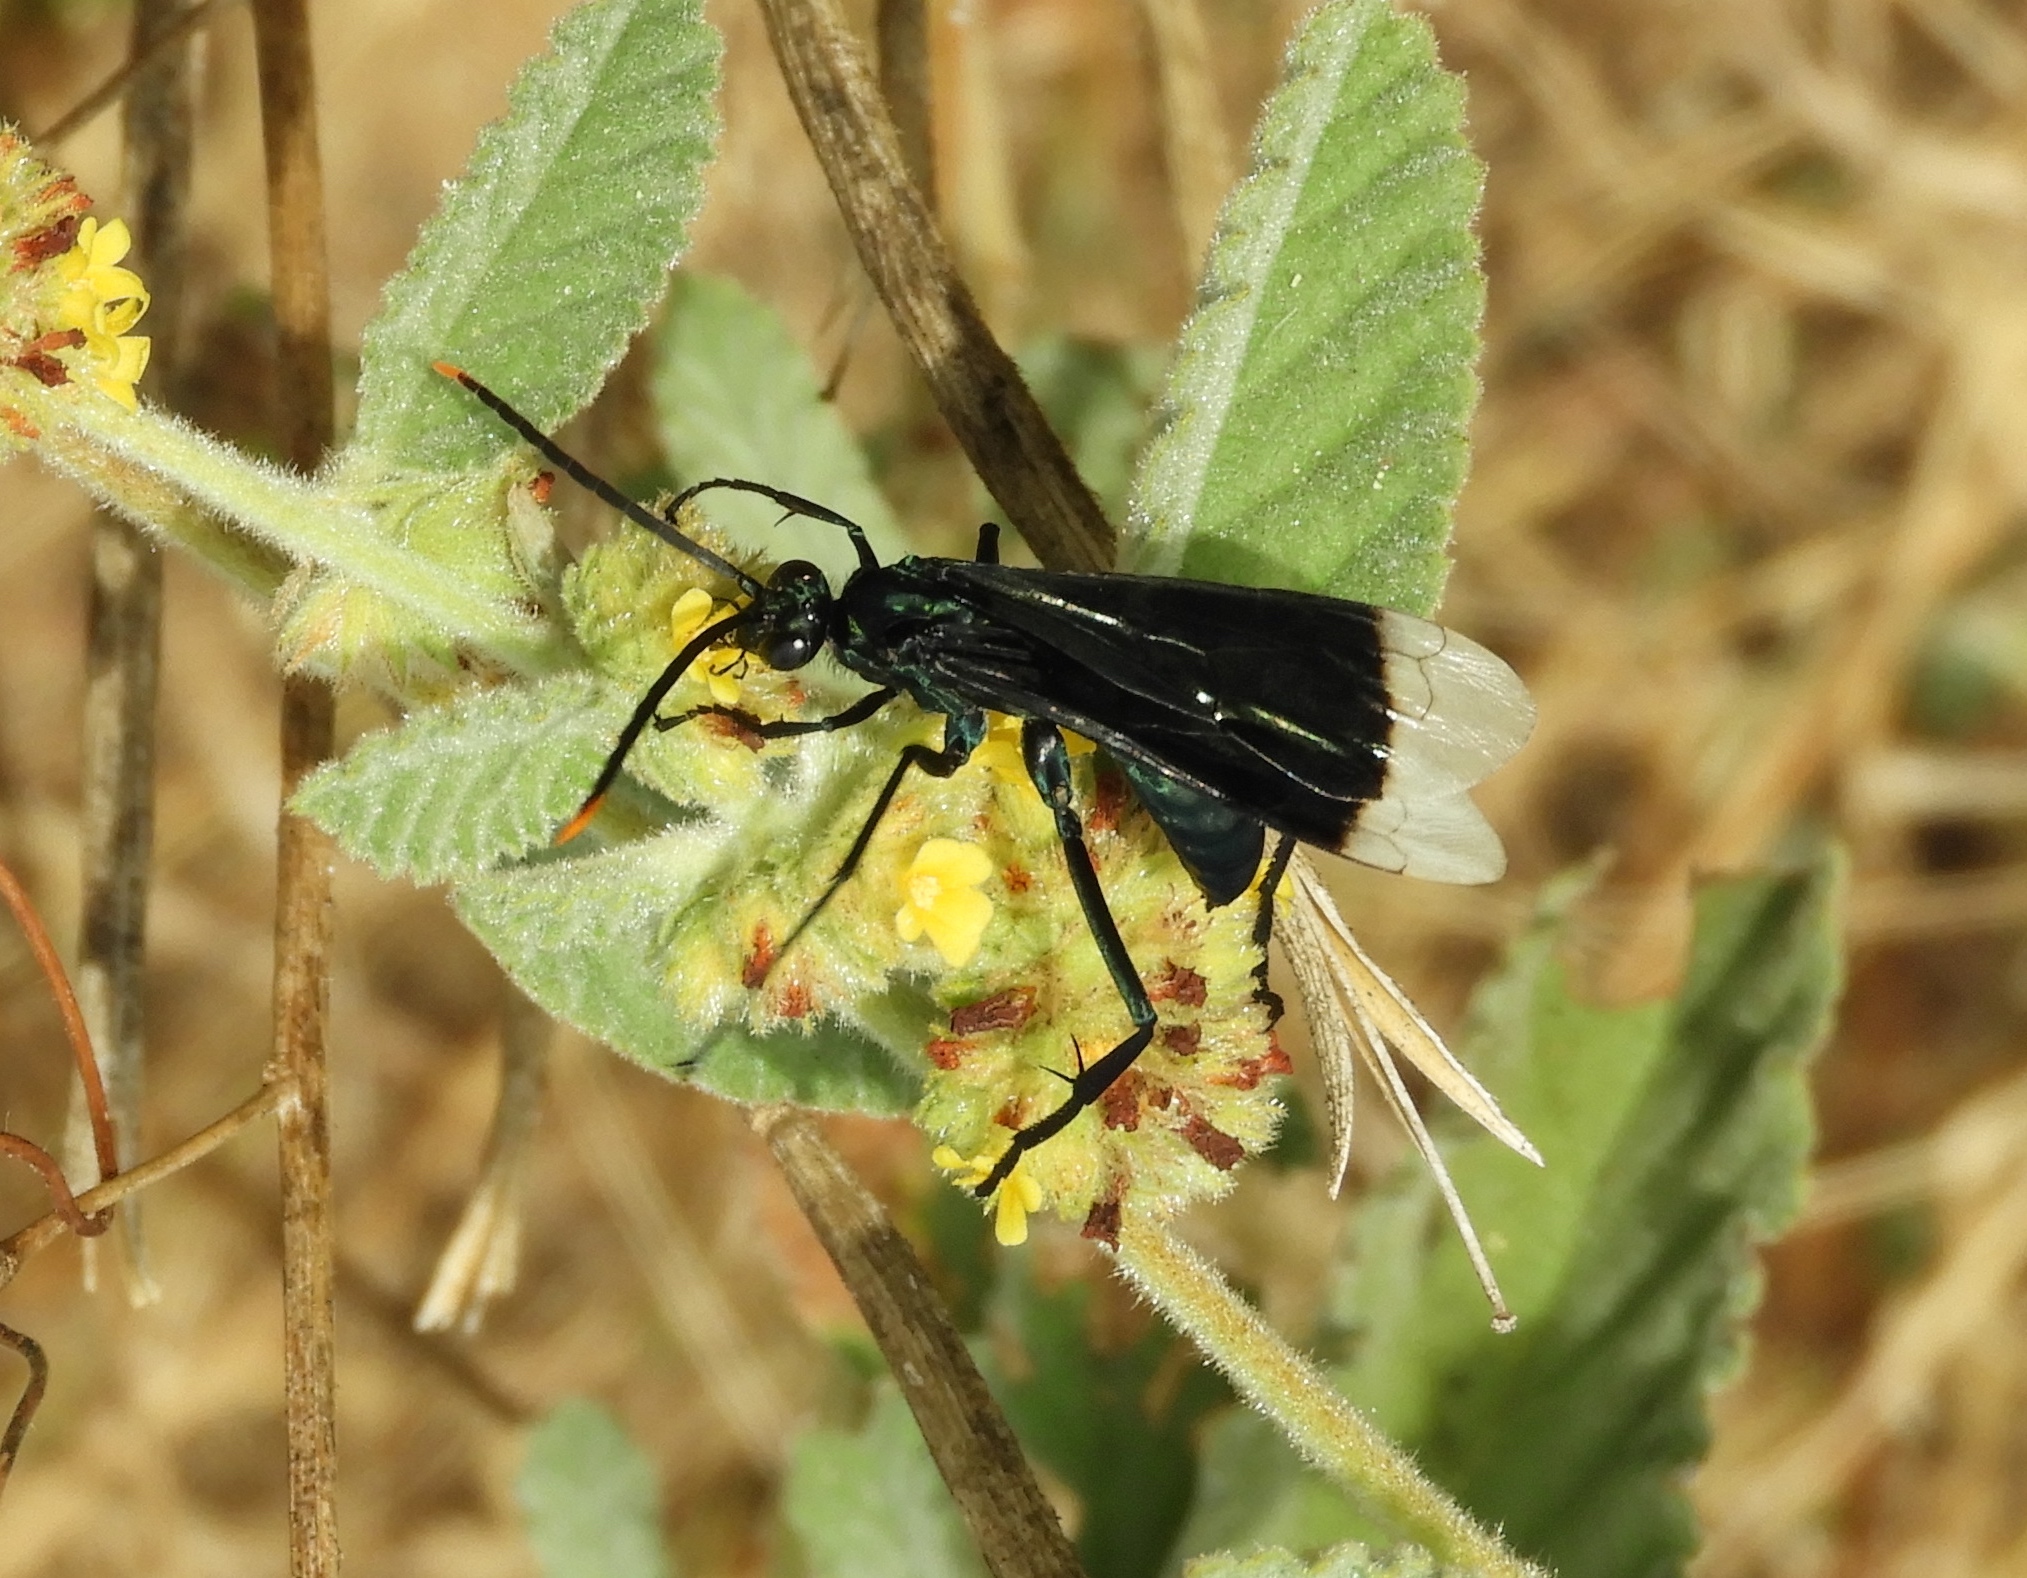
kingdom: Animalia
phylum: Arthropoda
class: Insecta
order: Hymenoptera
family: Pompilidae
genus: Pepsis
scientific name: Pepsis
